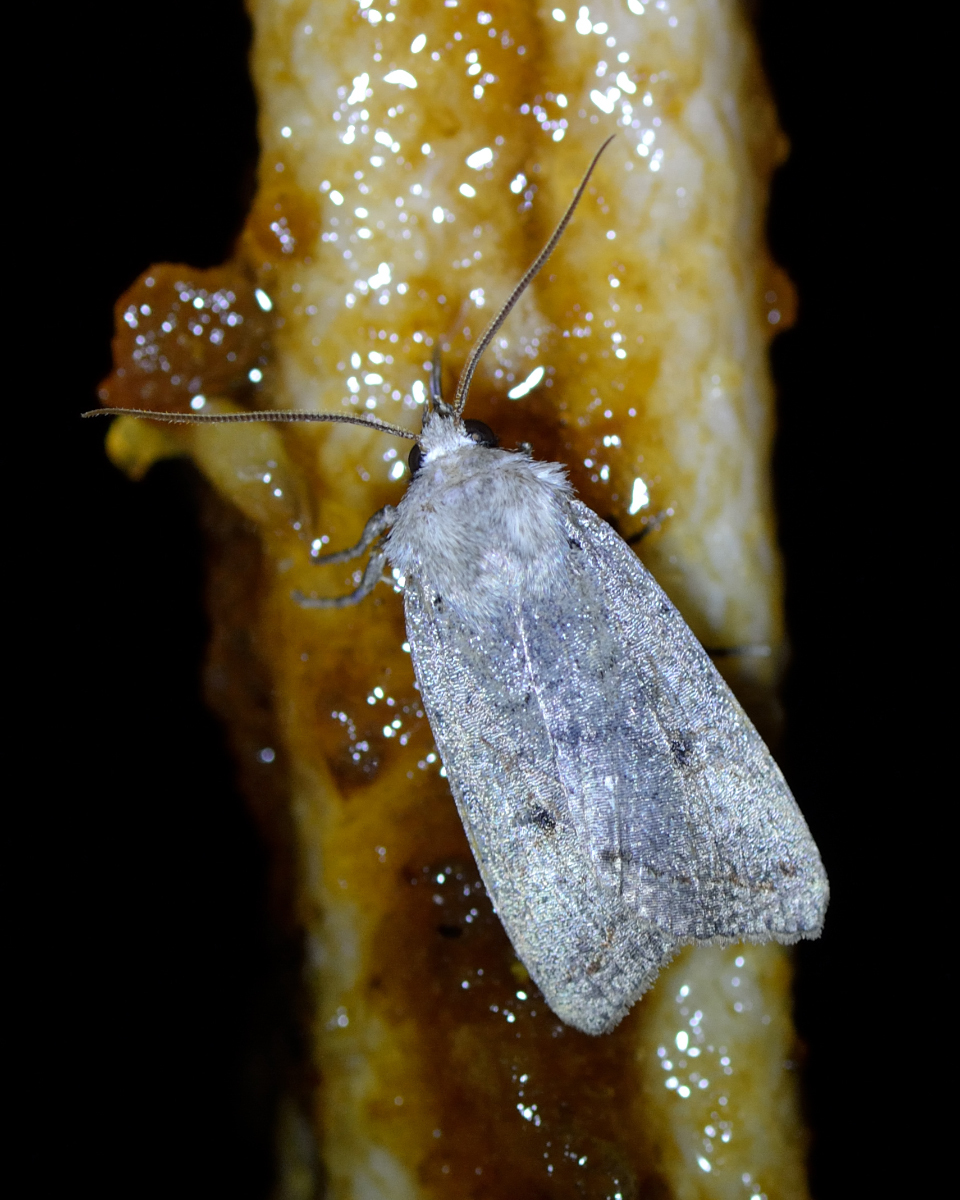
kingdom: Animalia
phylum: Arthropoda
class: Insecta
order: Lepidoptera
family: Noctuidae
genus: Agrochola
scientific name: Agrochola lota
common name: Red-line quaker
